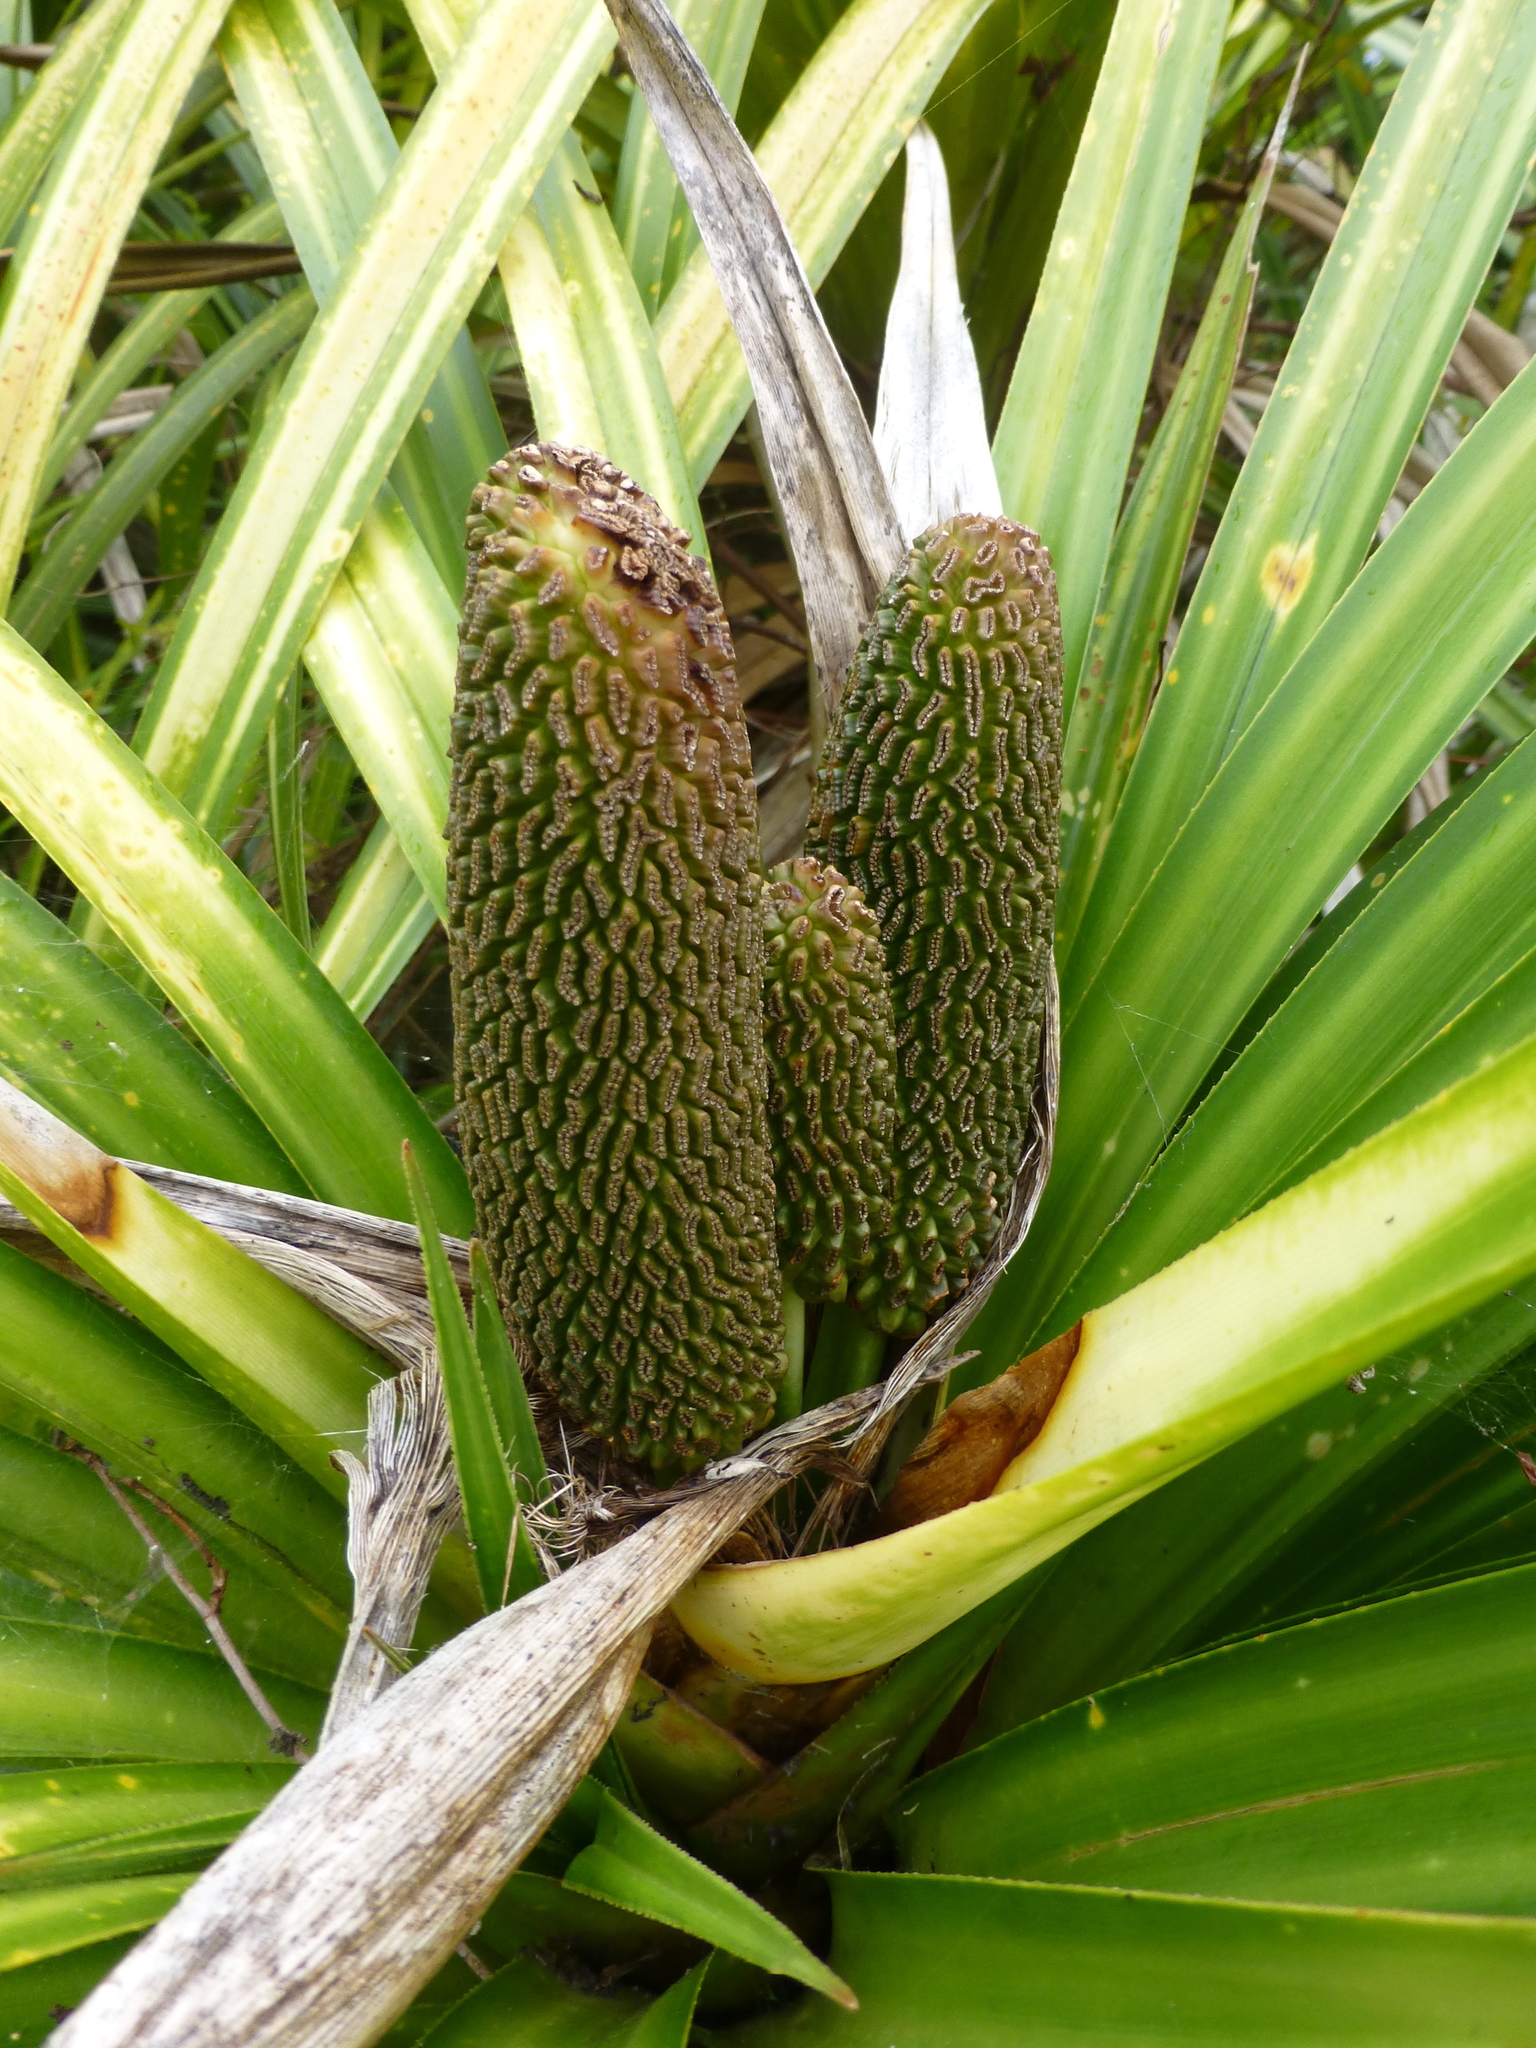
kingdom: Plantae
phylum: Tracheophyta
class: Liliopsida
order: Pandanales
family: Pandanaceae
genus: Freycinetia
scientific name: Freycinetia banksii
